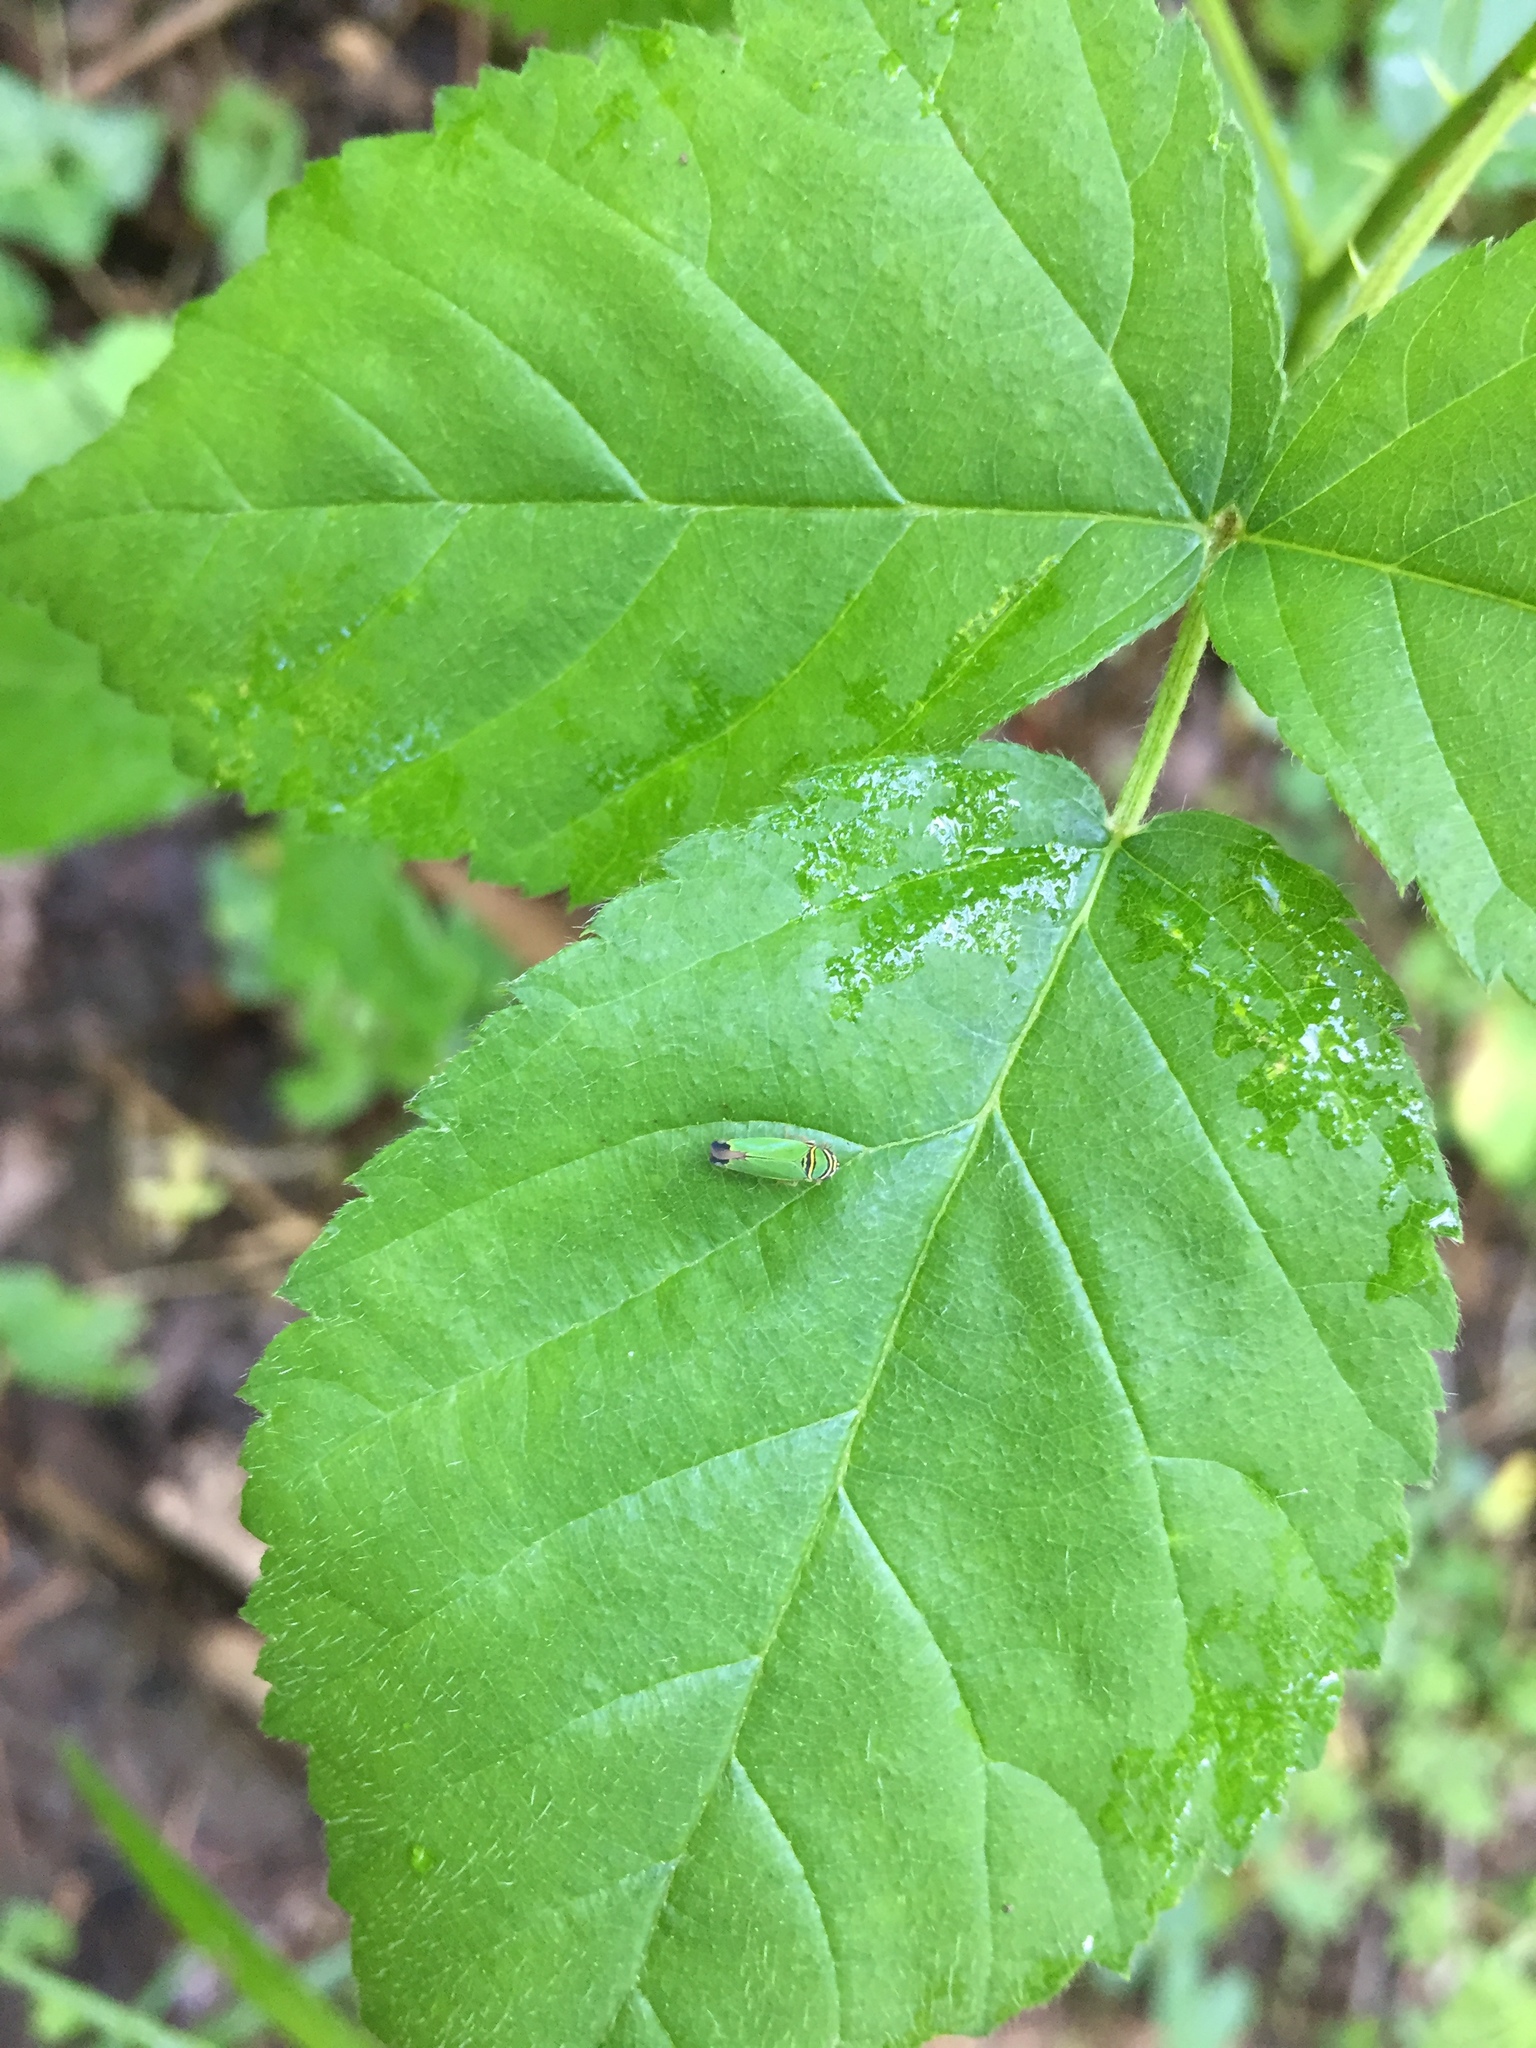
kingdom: Animalia
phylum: Arthropoda
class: Insecta
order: Hemiptera
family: Cicadellidae
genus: Tylozygus
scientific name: Tylozygus geometricus
